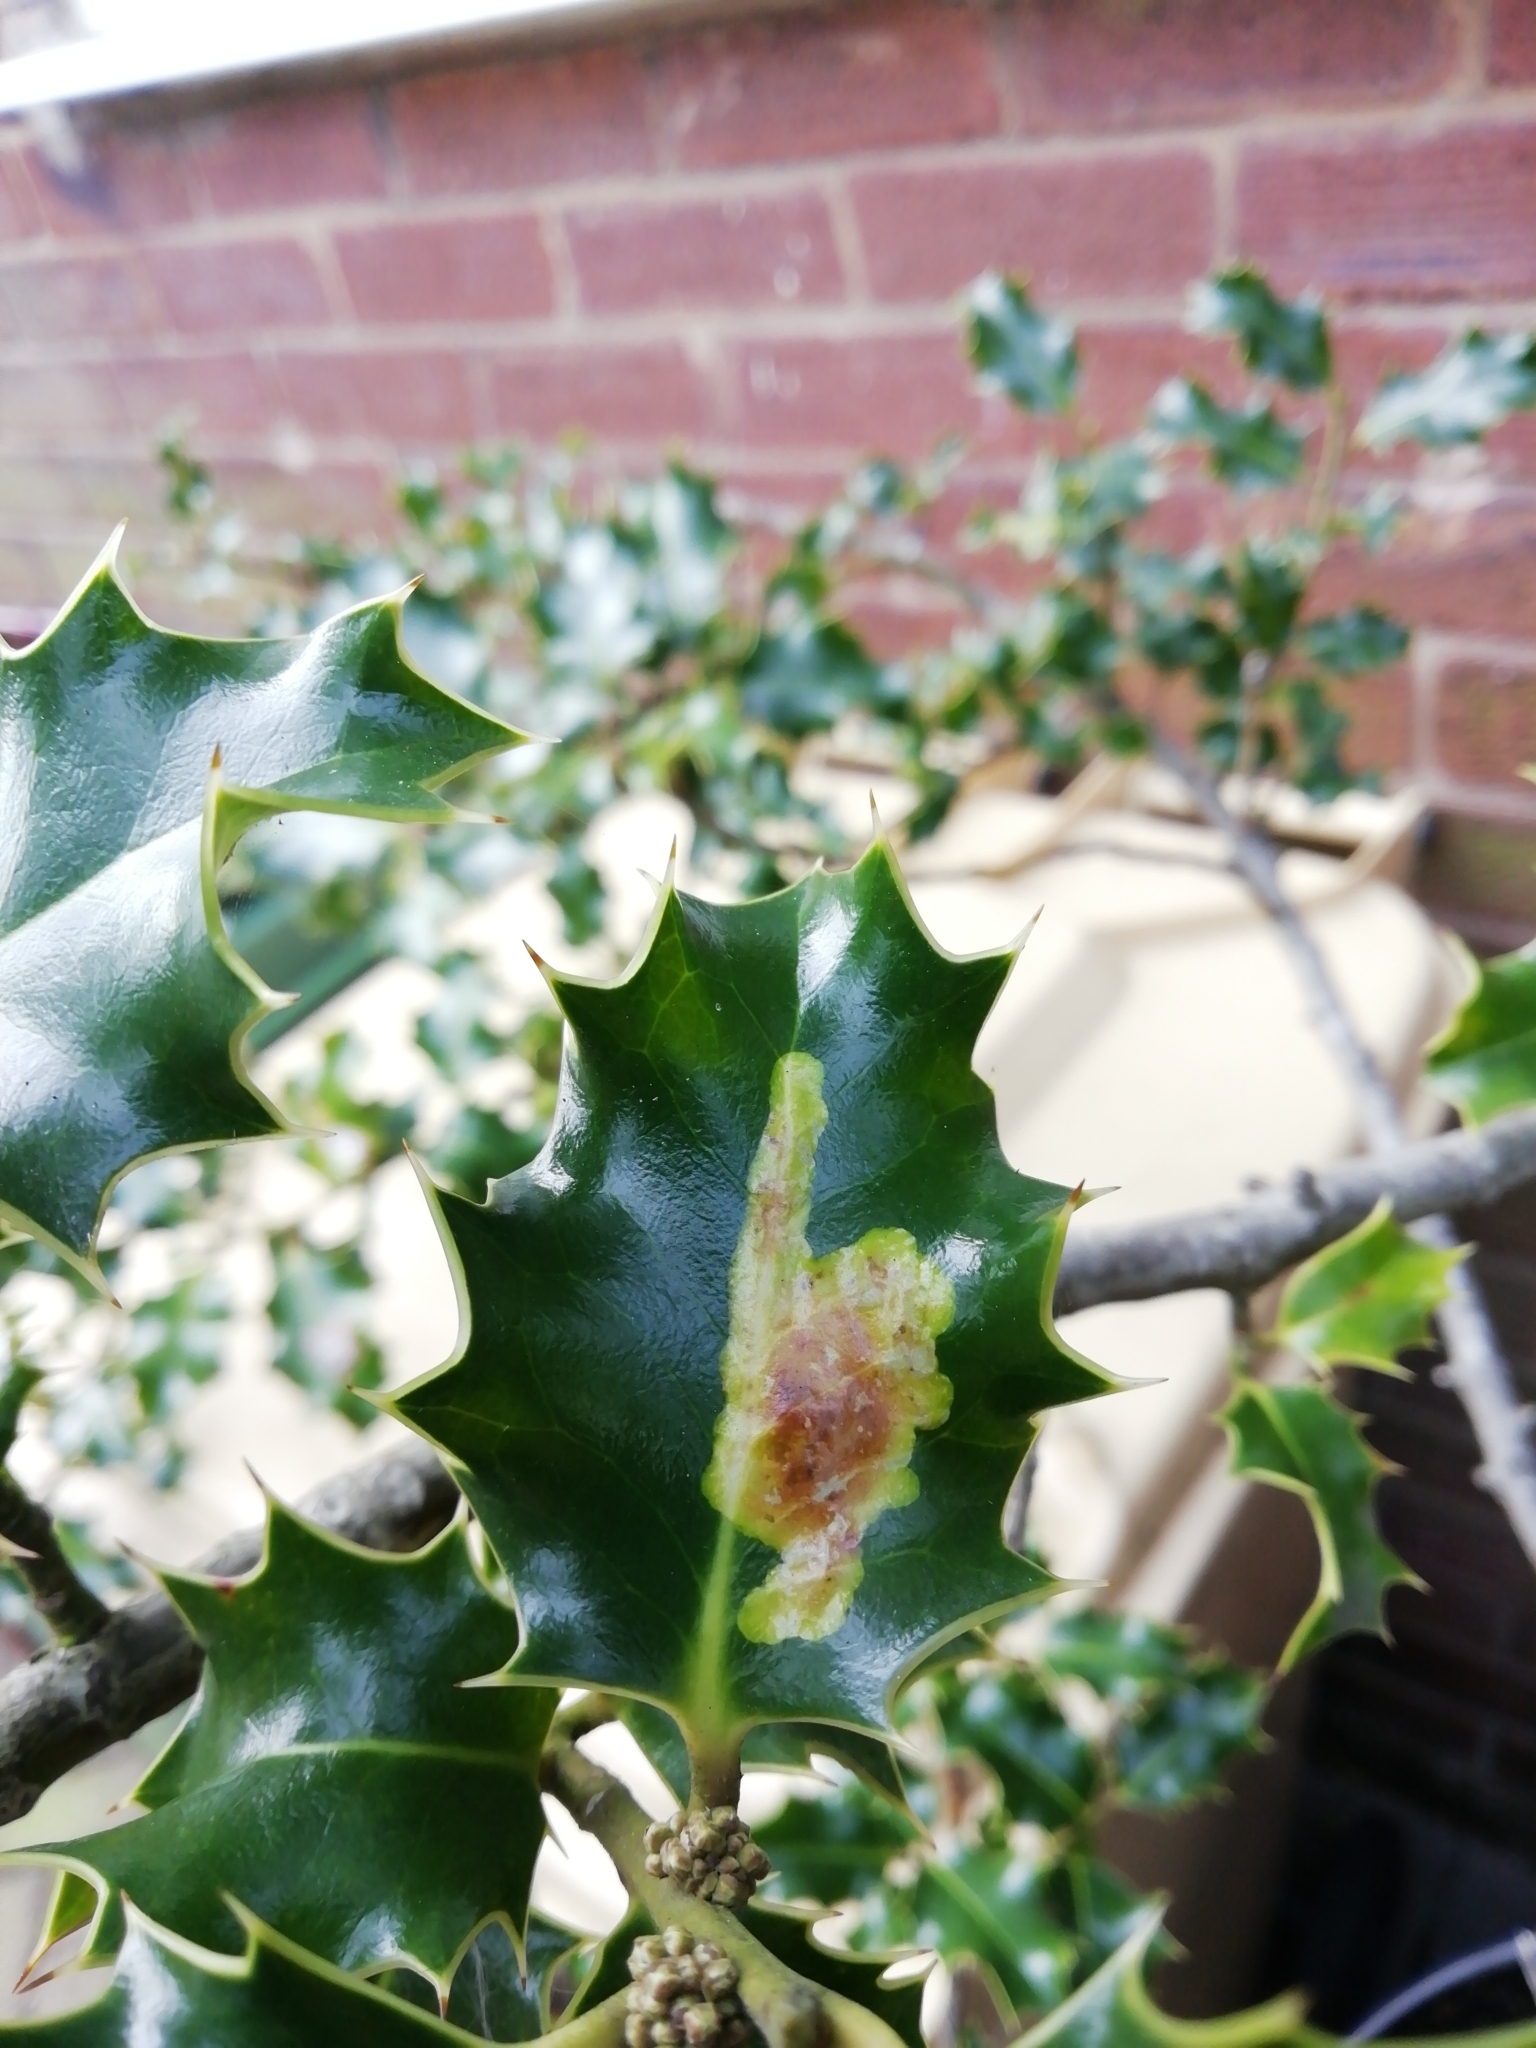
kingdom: Animalia
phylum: Arthropoda
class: Insecta
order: Diptera
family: Agromyzidae
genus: Phytomyza
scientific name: Phytomyza ilicis
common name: Holly leafminer
